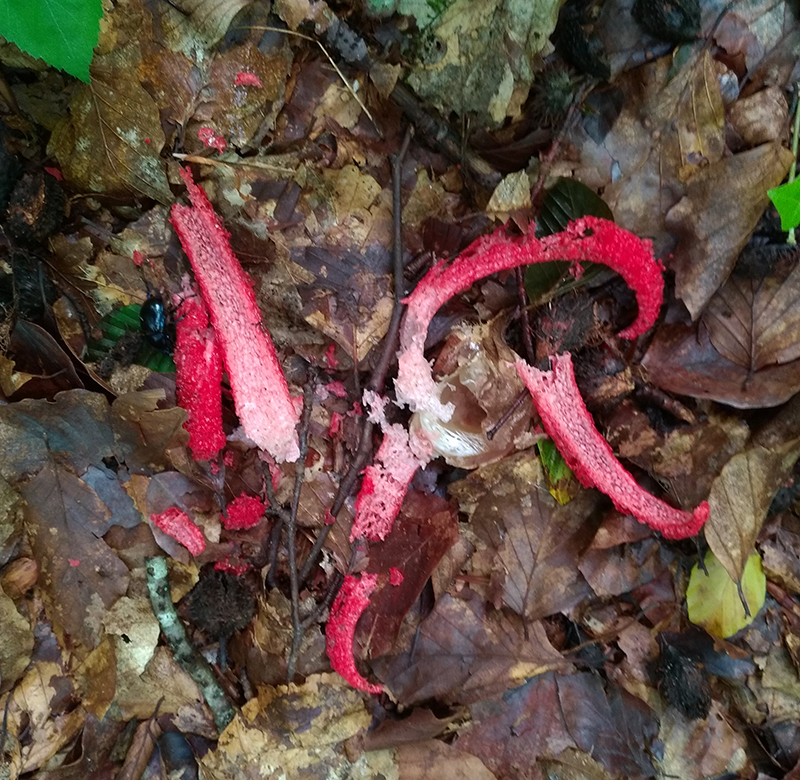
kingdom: Fungi
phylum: Basidiomycota
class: Agaricomycetes
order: Phallales
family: Phallaceae
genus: Clathrus
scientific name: Clathrus archeri
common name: Devil's fingers
